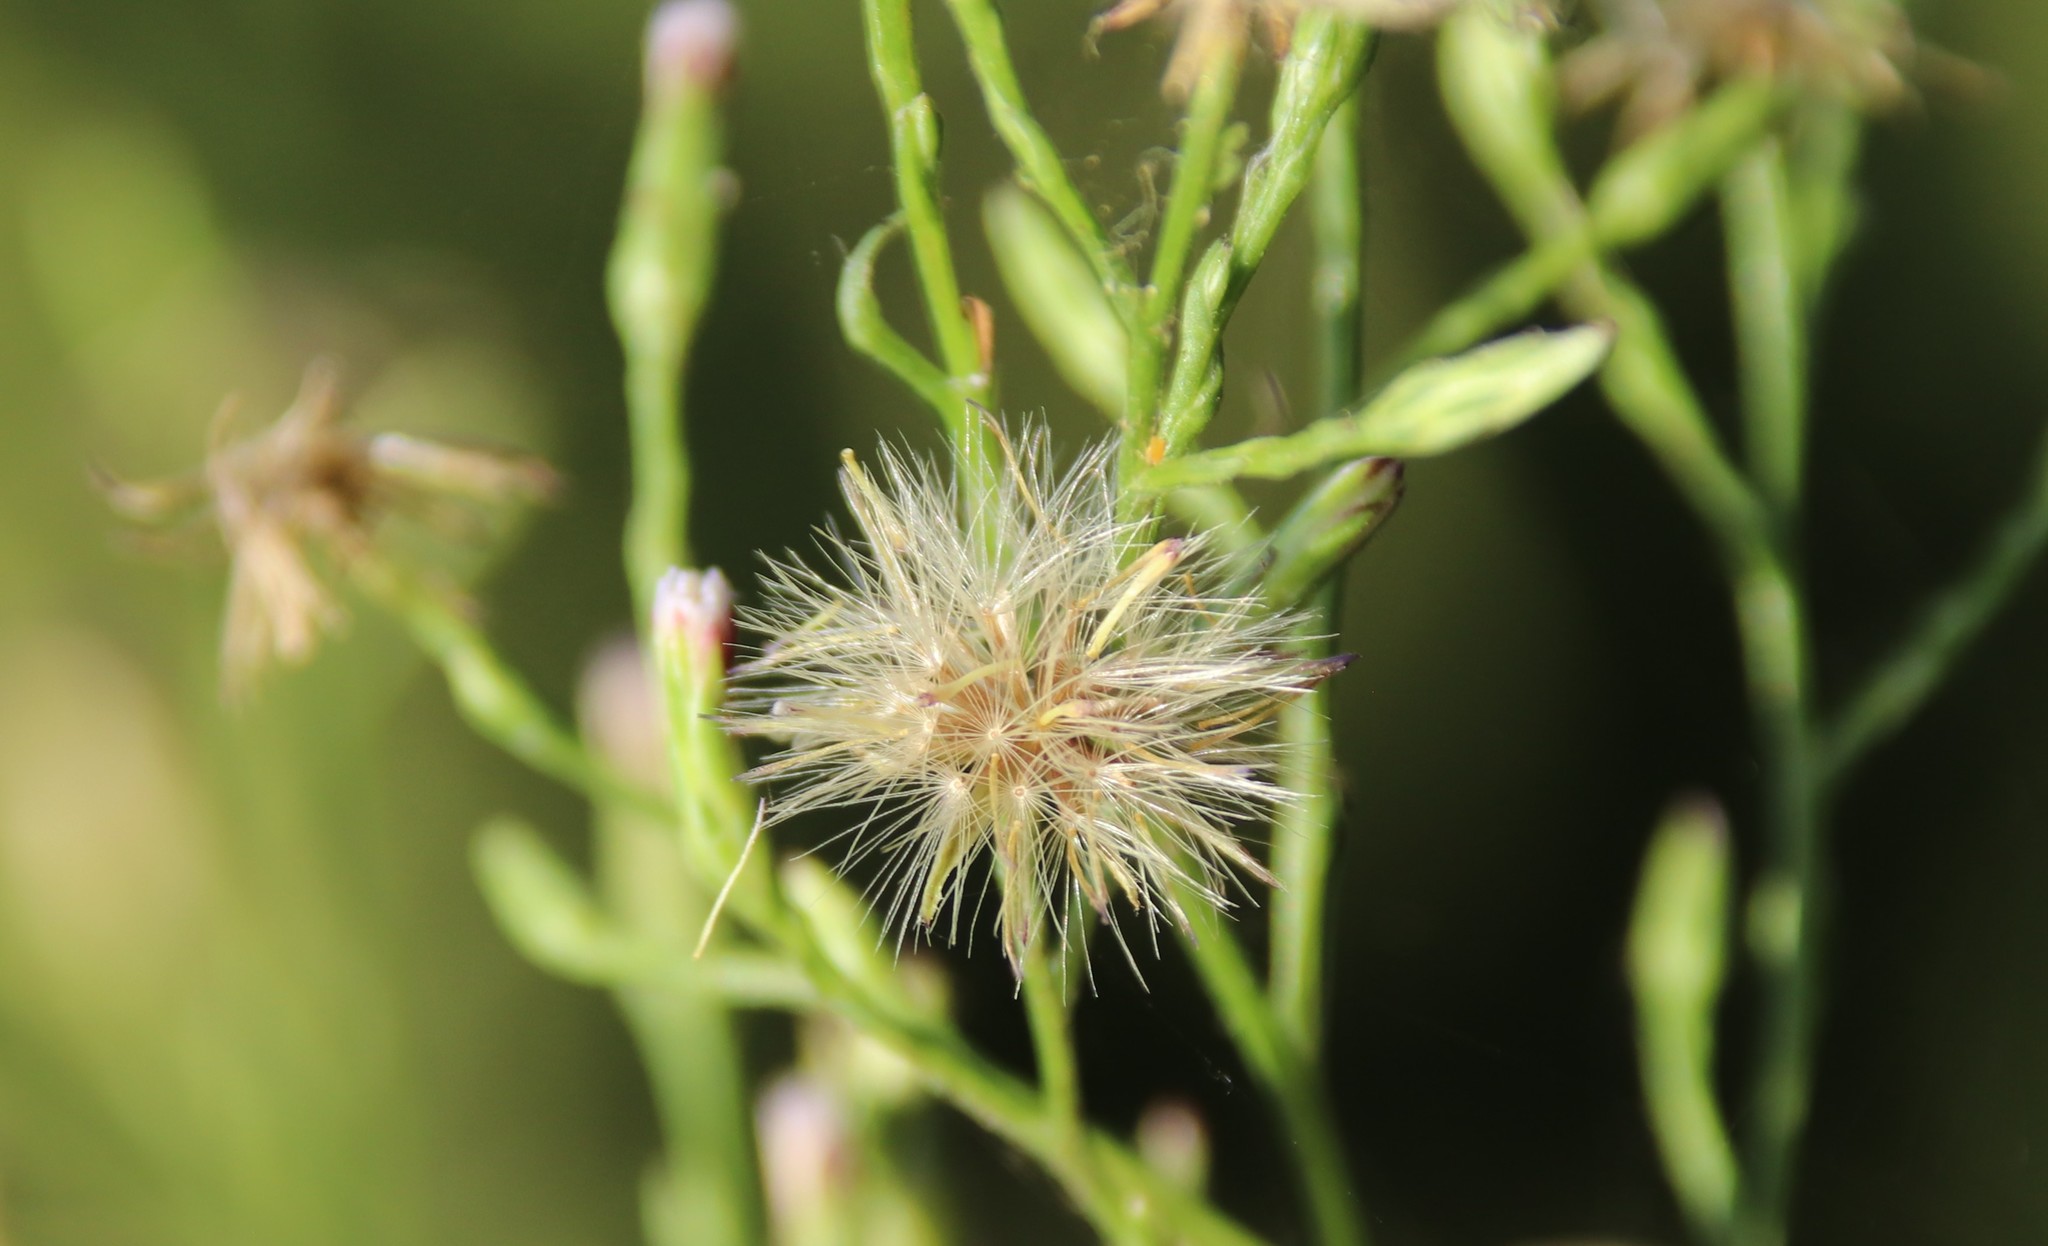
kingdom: Plantae
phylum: Tracheophyta
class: Magnoliopsida
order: Asterales
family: Asteraceae
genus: Symphyotrichum
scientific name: Symphyotrichum subulatum
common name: Annual saltmarsh aster
